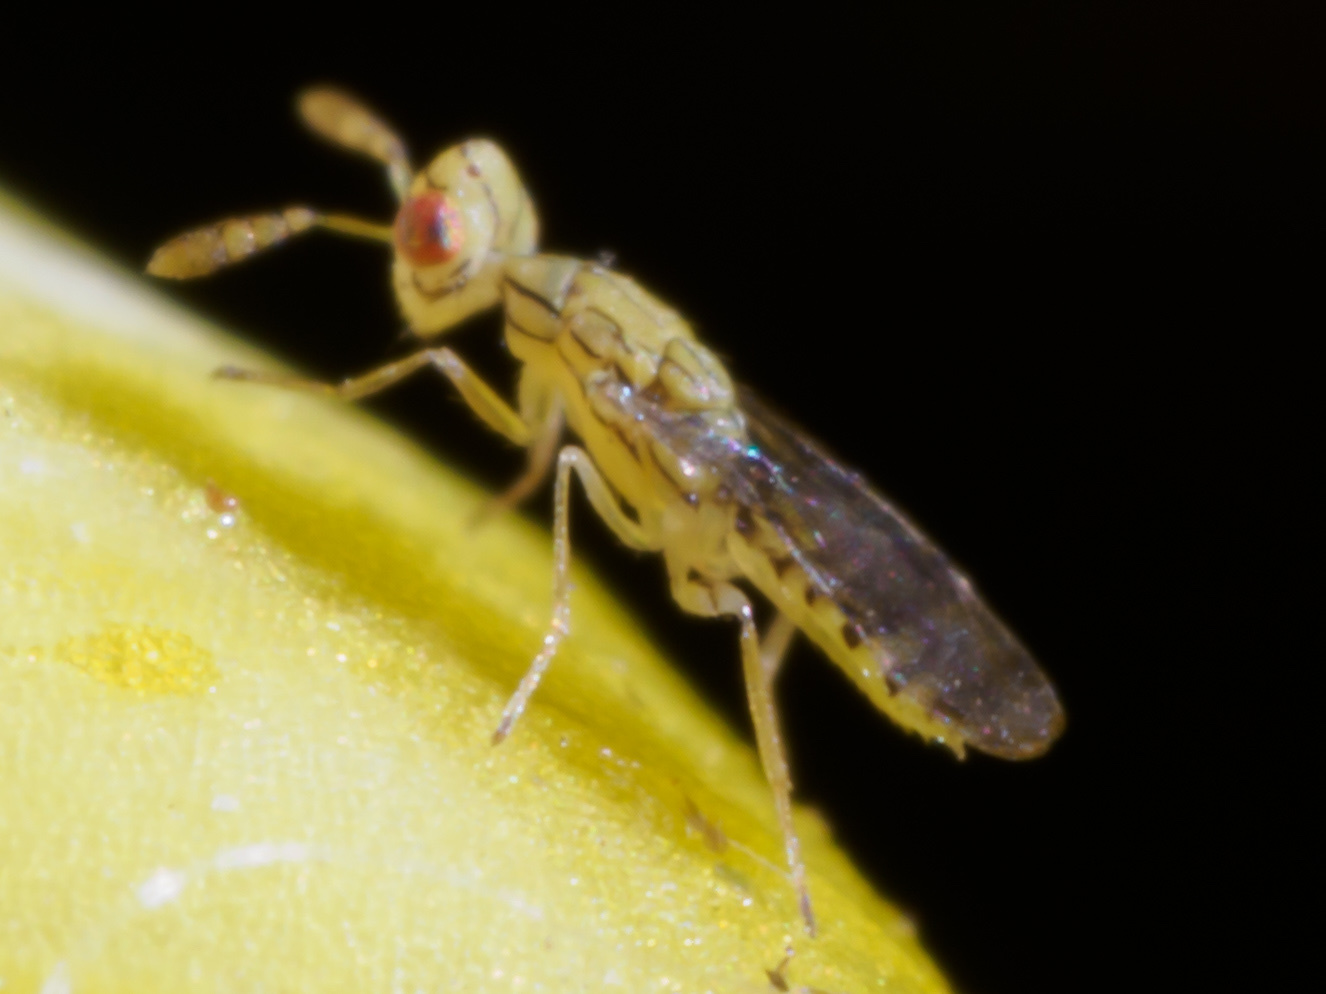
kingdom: Animalia
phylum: Arthropoda
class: Insecta
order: Hymenoptera
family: Eulophidae
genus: Zagrammosoma
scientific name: Zagrammosoma americanum
